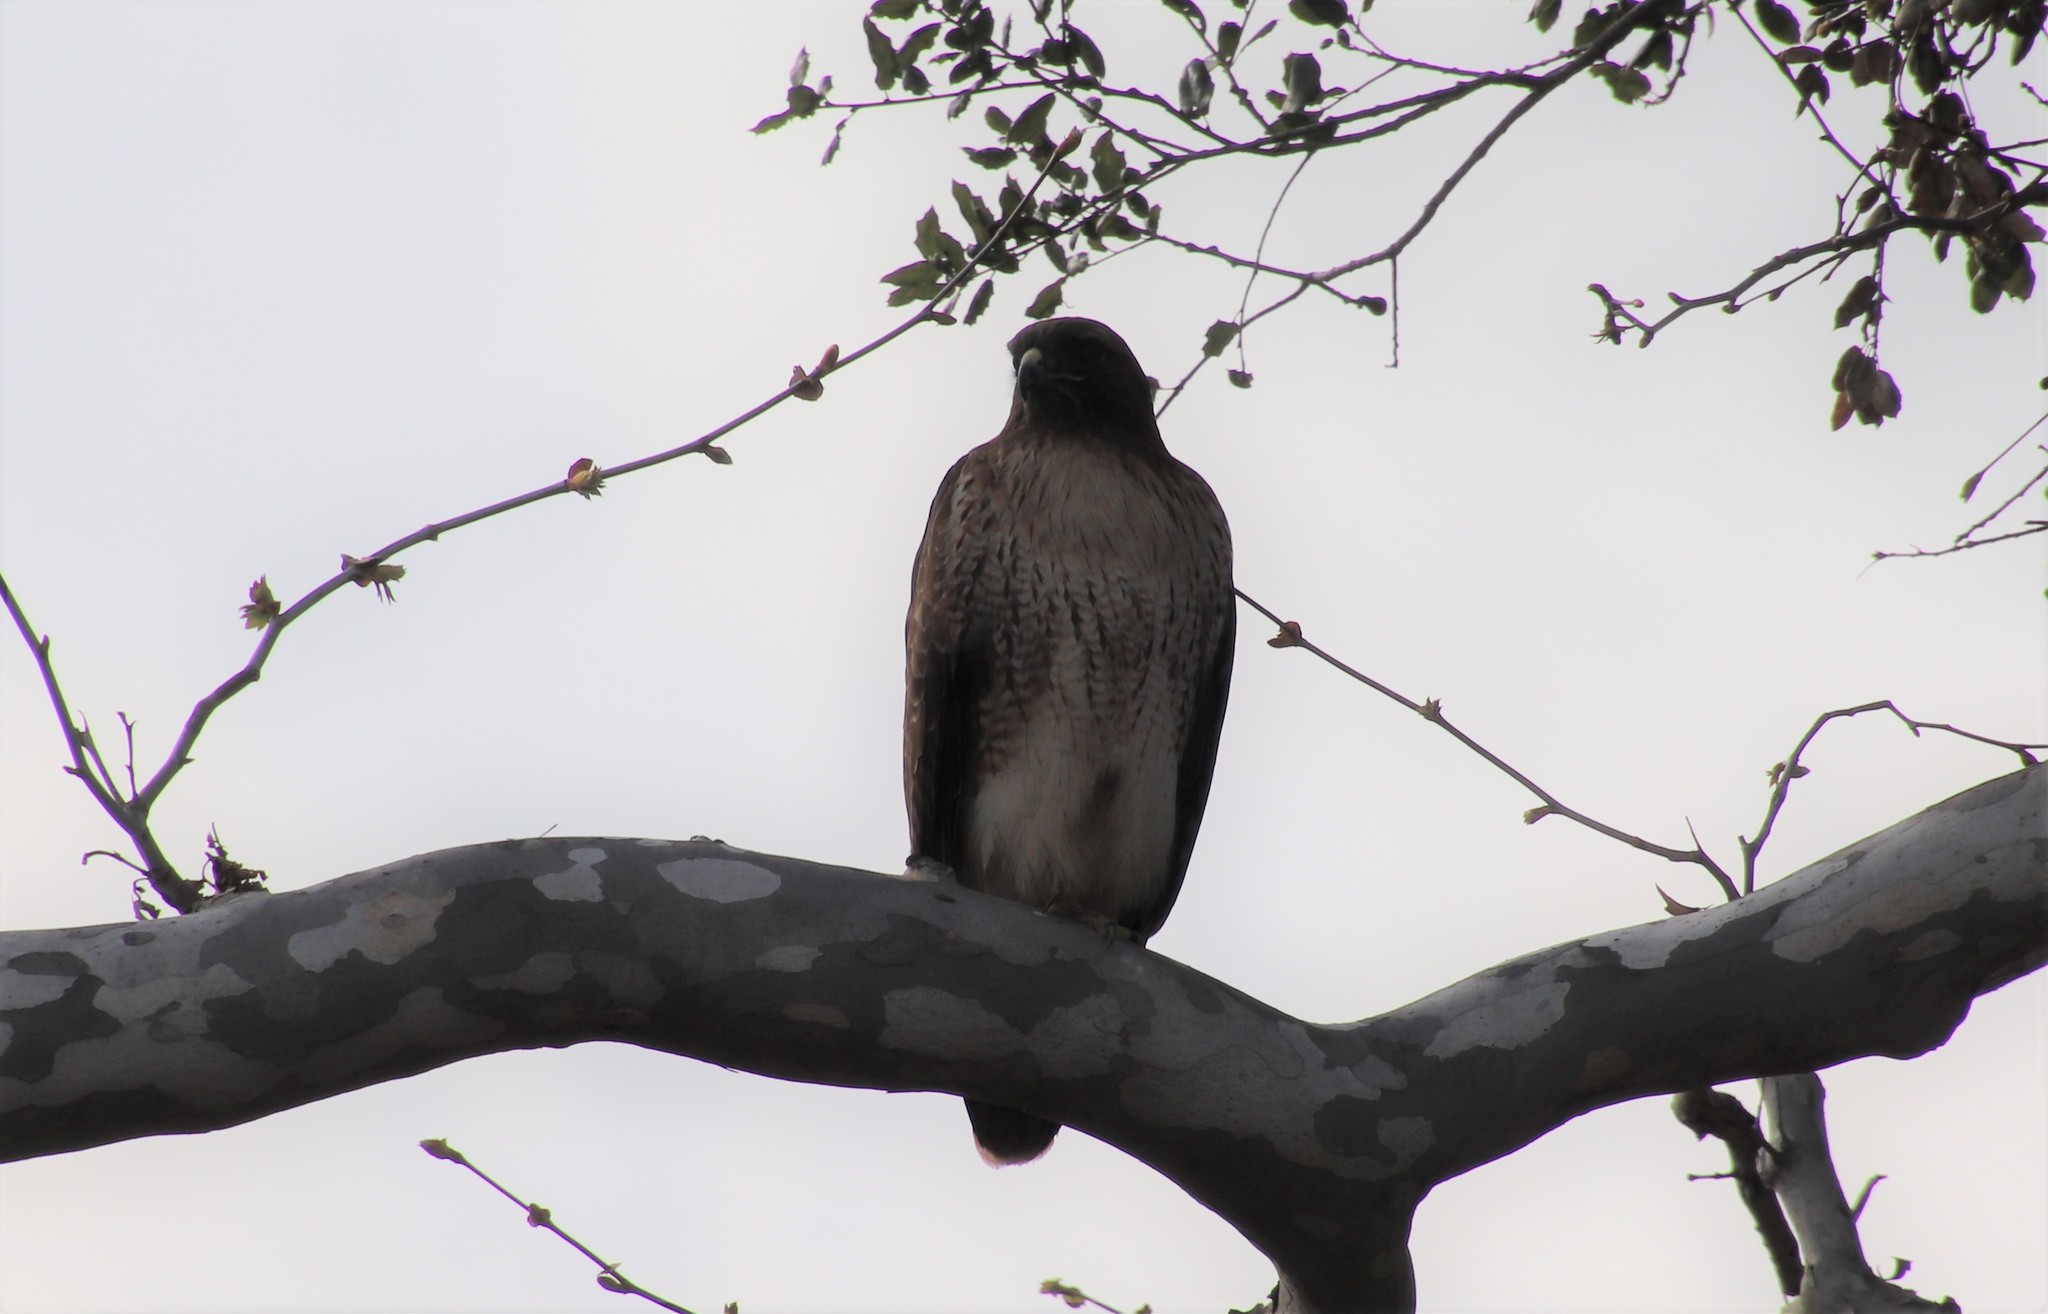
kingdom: Animalia
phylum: Chordata
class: Aves
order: Accipitriformes
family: Accipitridae
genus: Buteo
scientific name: Buteo jamaicensis
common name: Red-tailed hawk
